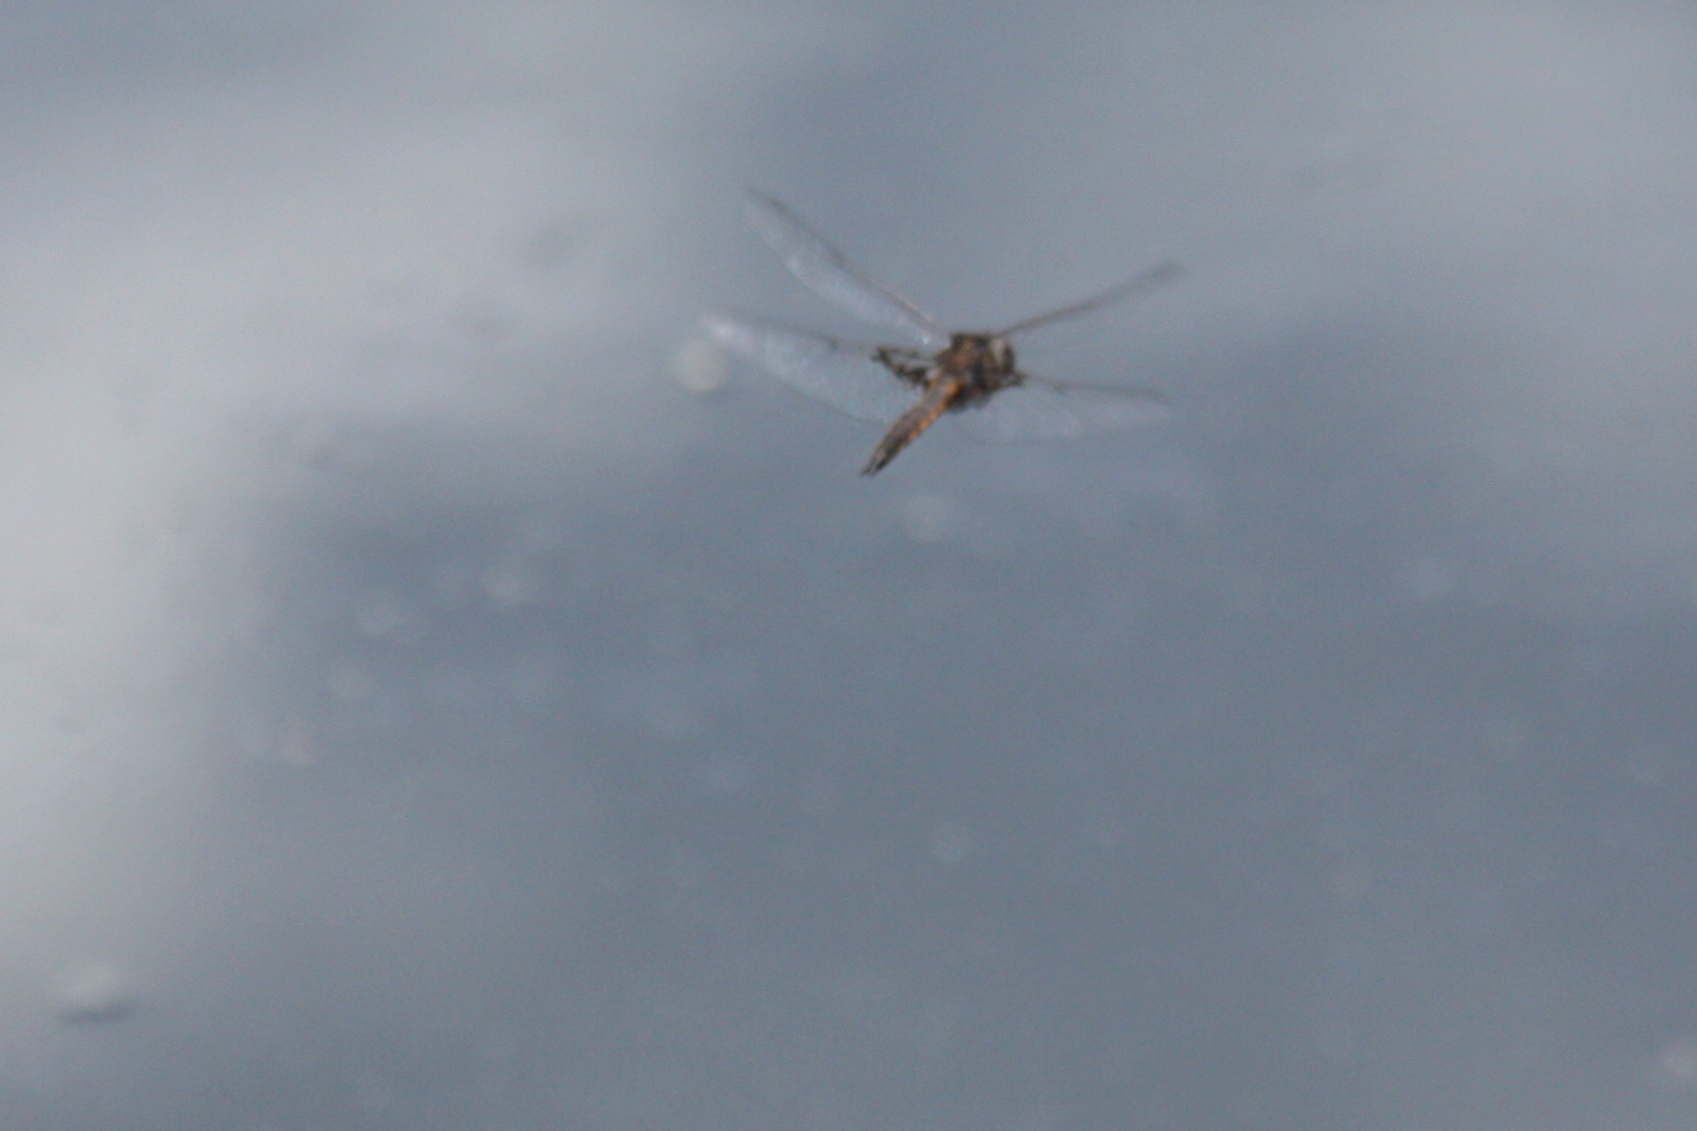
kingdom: Animalia
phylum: Arthropoda
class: Insecta
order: Odonata
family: Corduliidae
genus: Epitheca
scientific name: Epitheca cynosura
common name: Common baskettail
